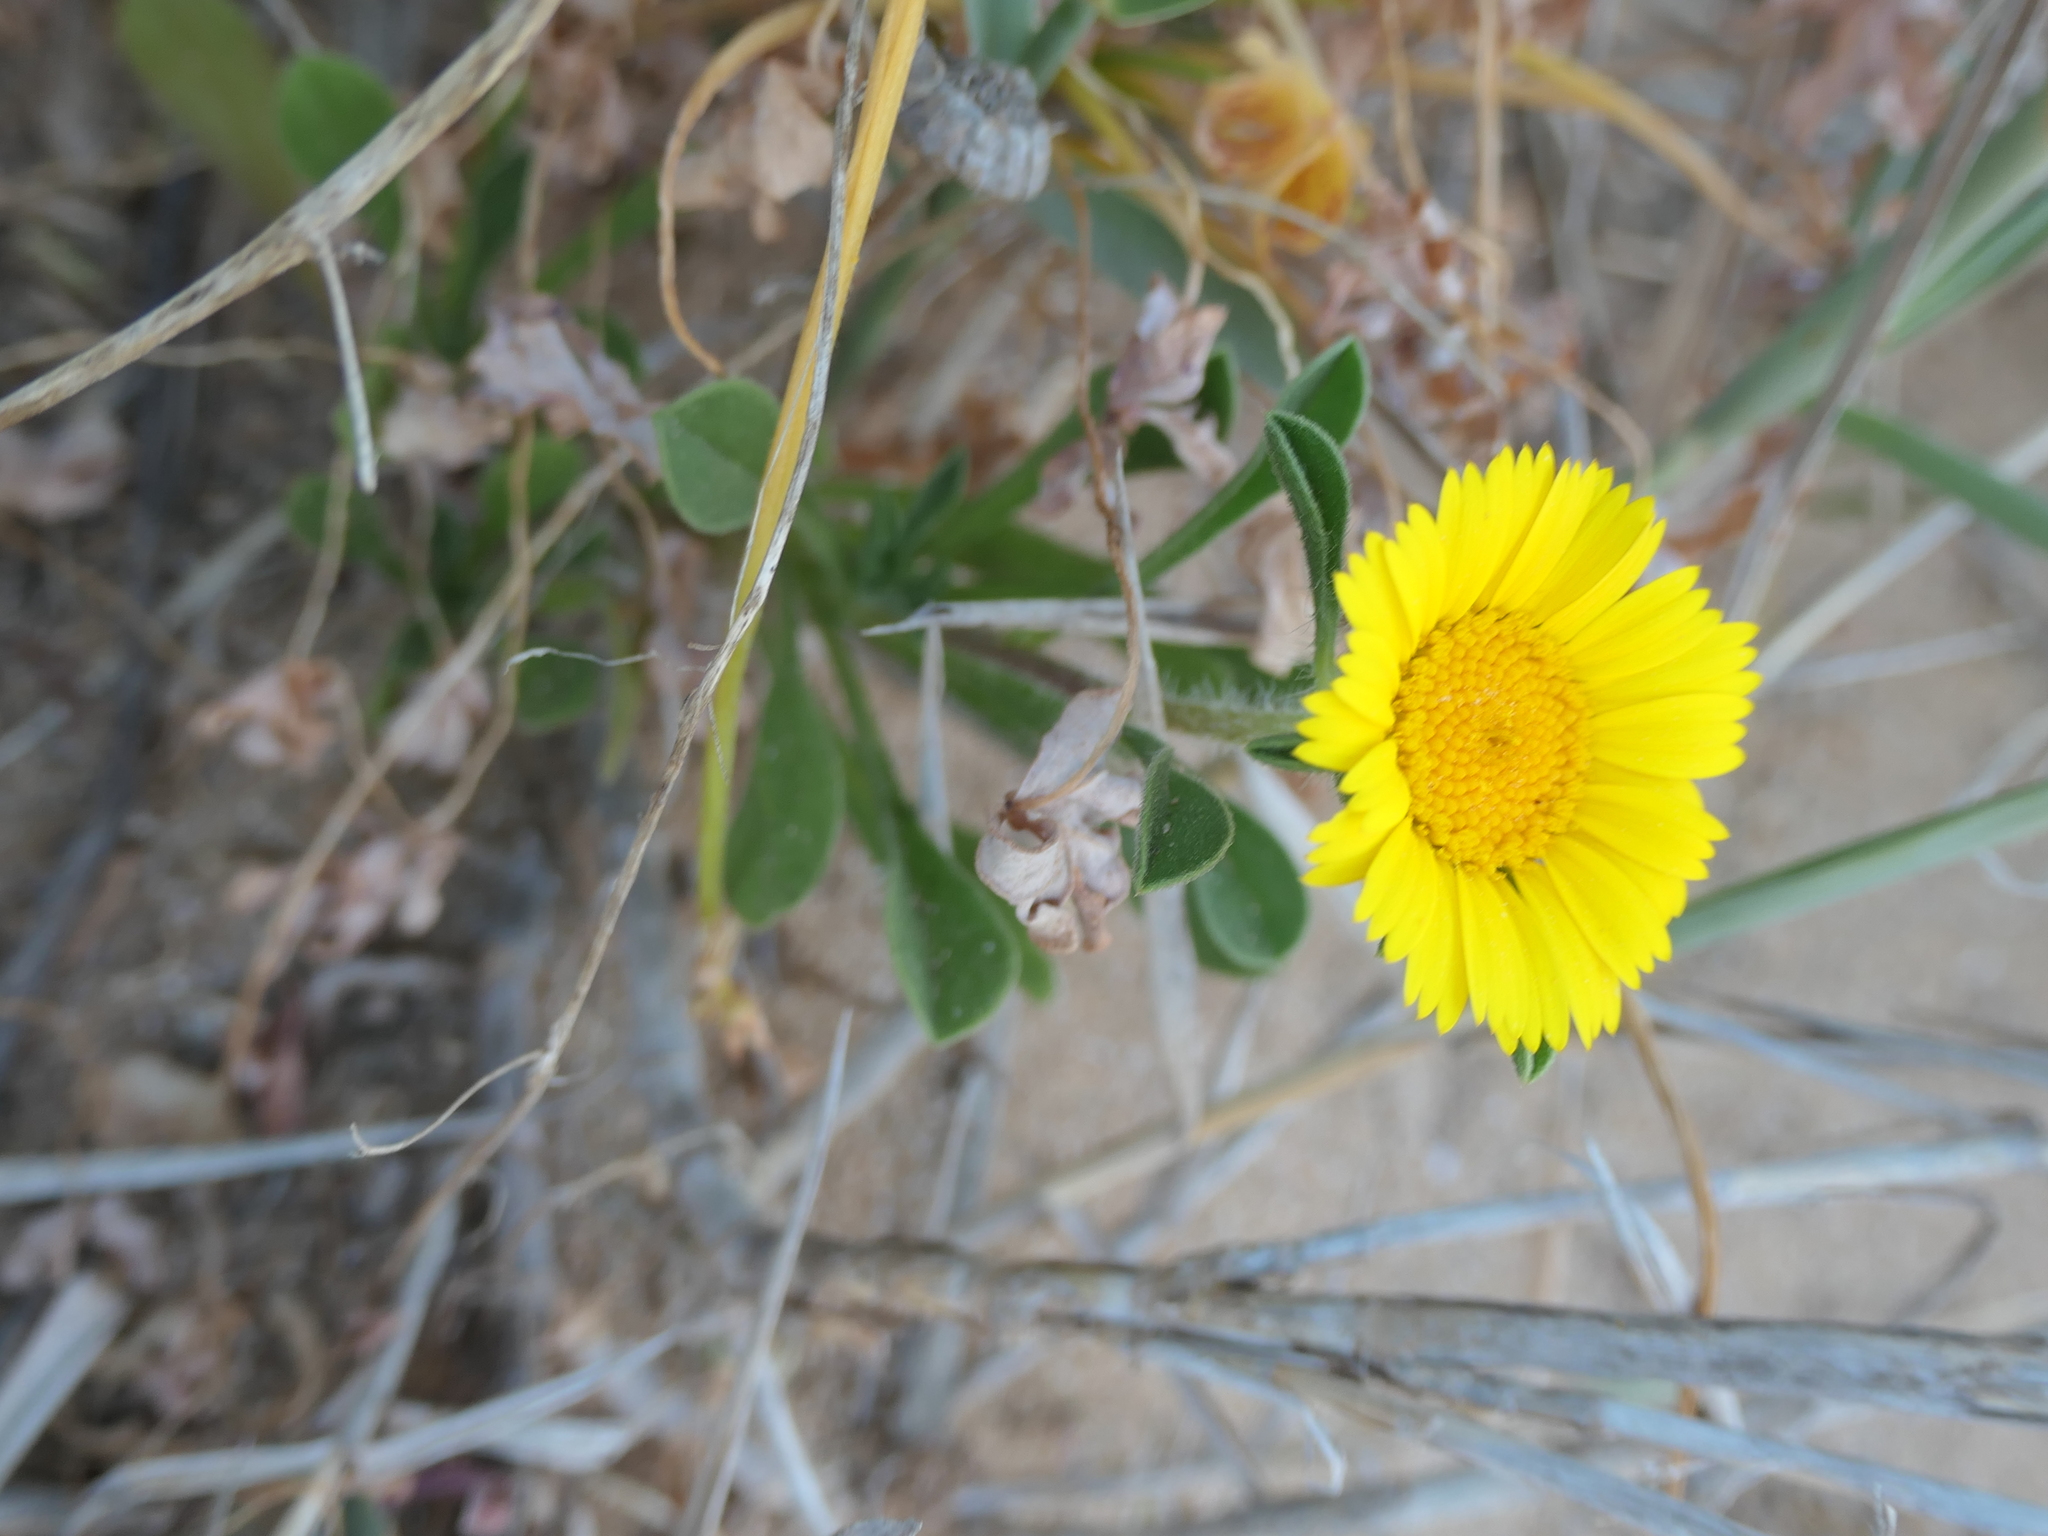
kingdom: Plantae
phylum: Tracheophyta
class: Magnoliopsida
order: Asterales
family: Asteraceae
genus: Pallenis
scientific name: Pallenis maritima
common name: Golden coin daisy
